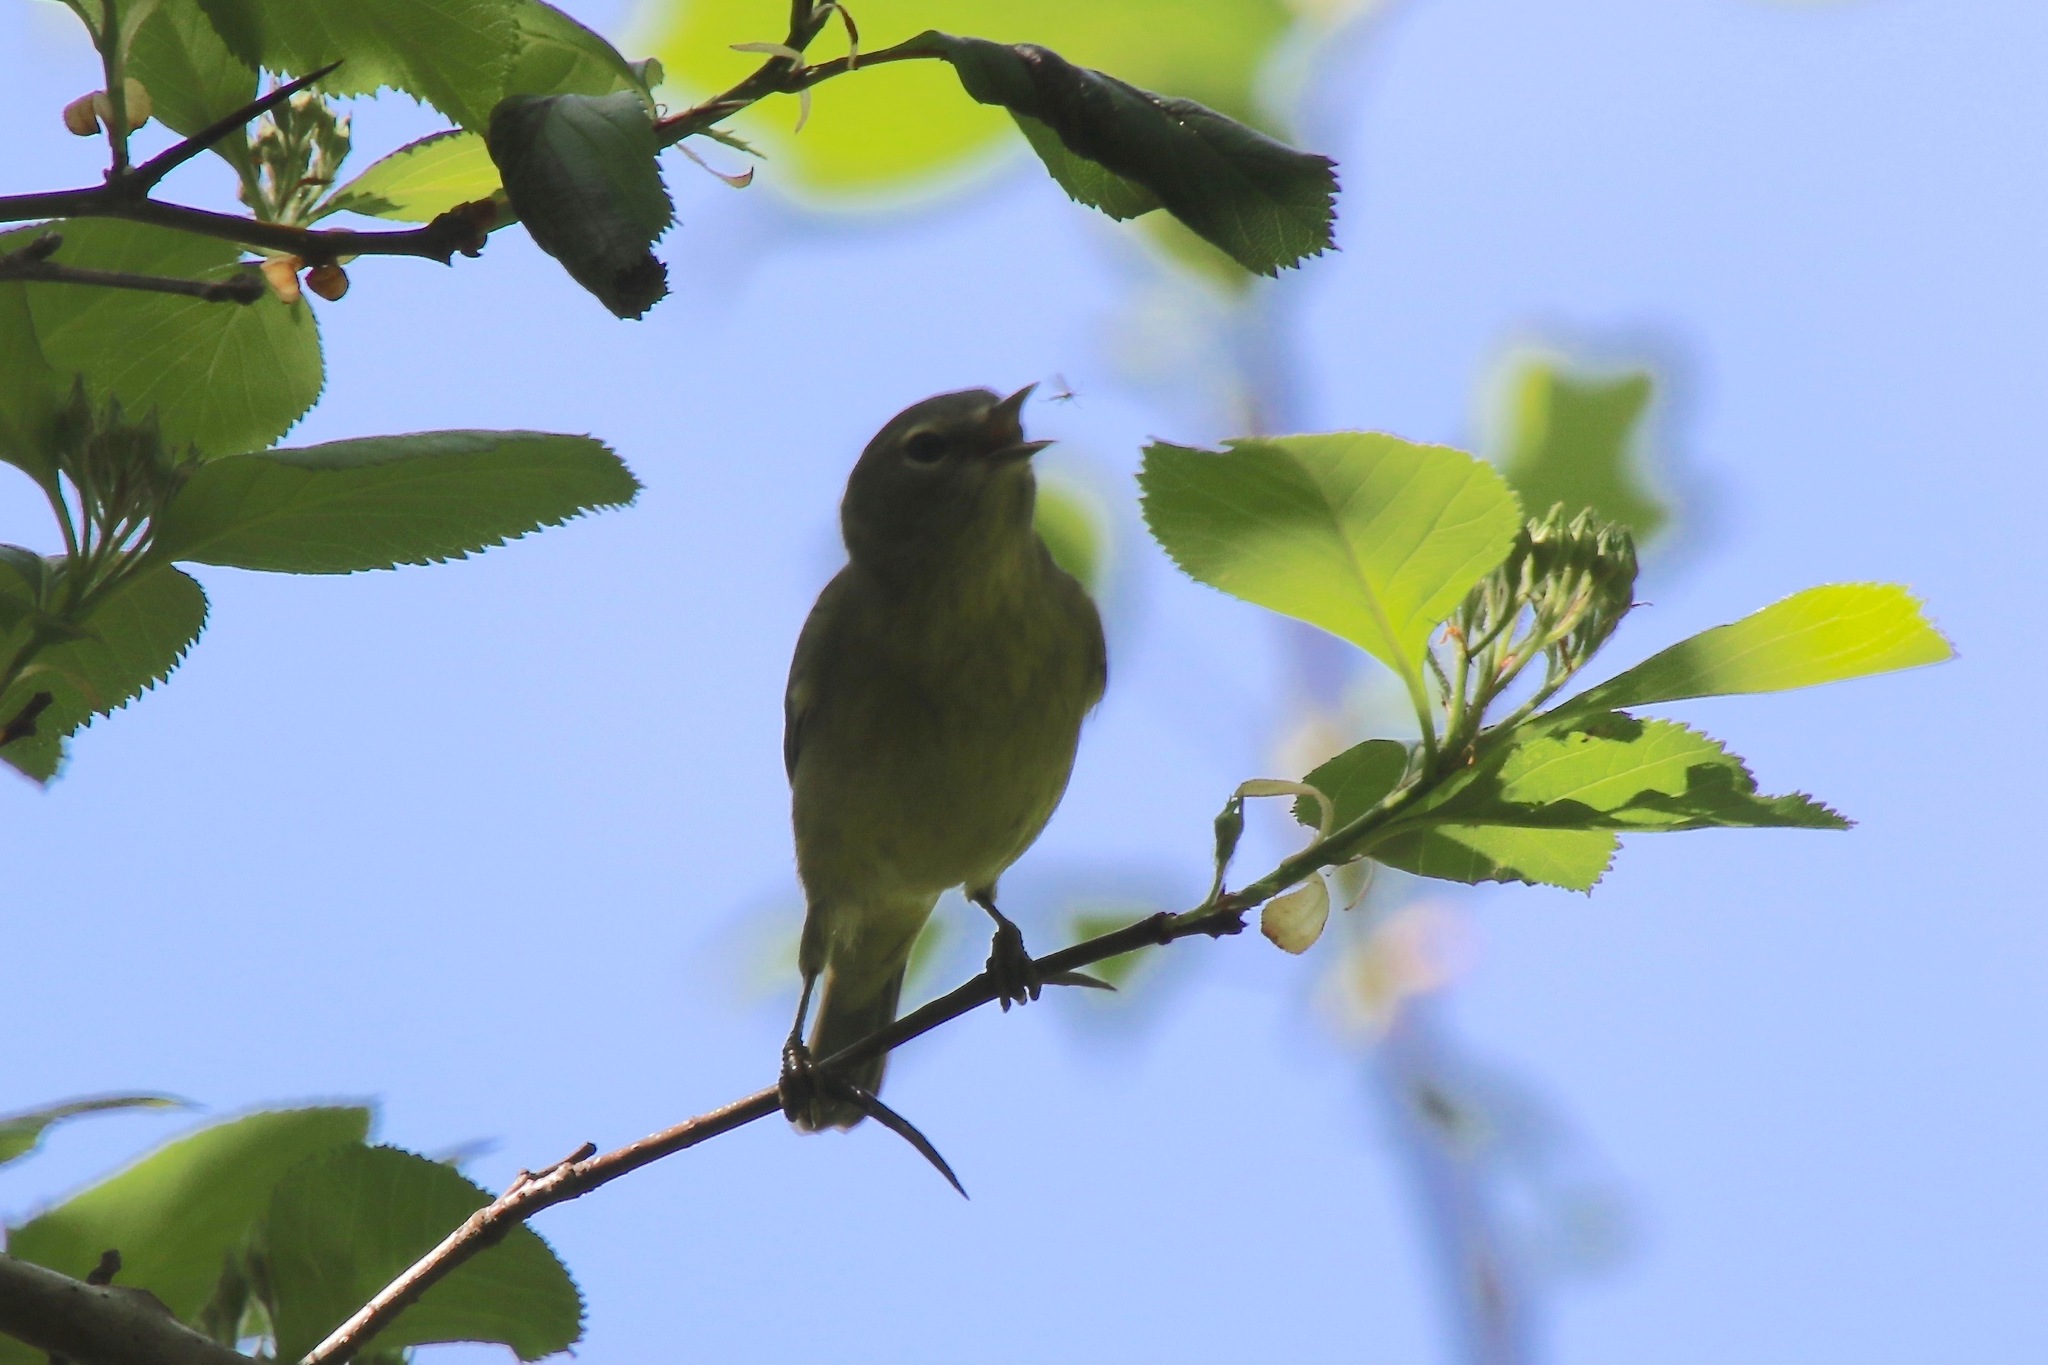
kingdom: Animalia
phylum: Chordata
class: Aves
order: Passeriformes
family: Parulidae
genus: Leiothlypis
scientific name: Leiothlypis celata
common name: Orange-crowned warbler
